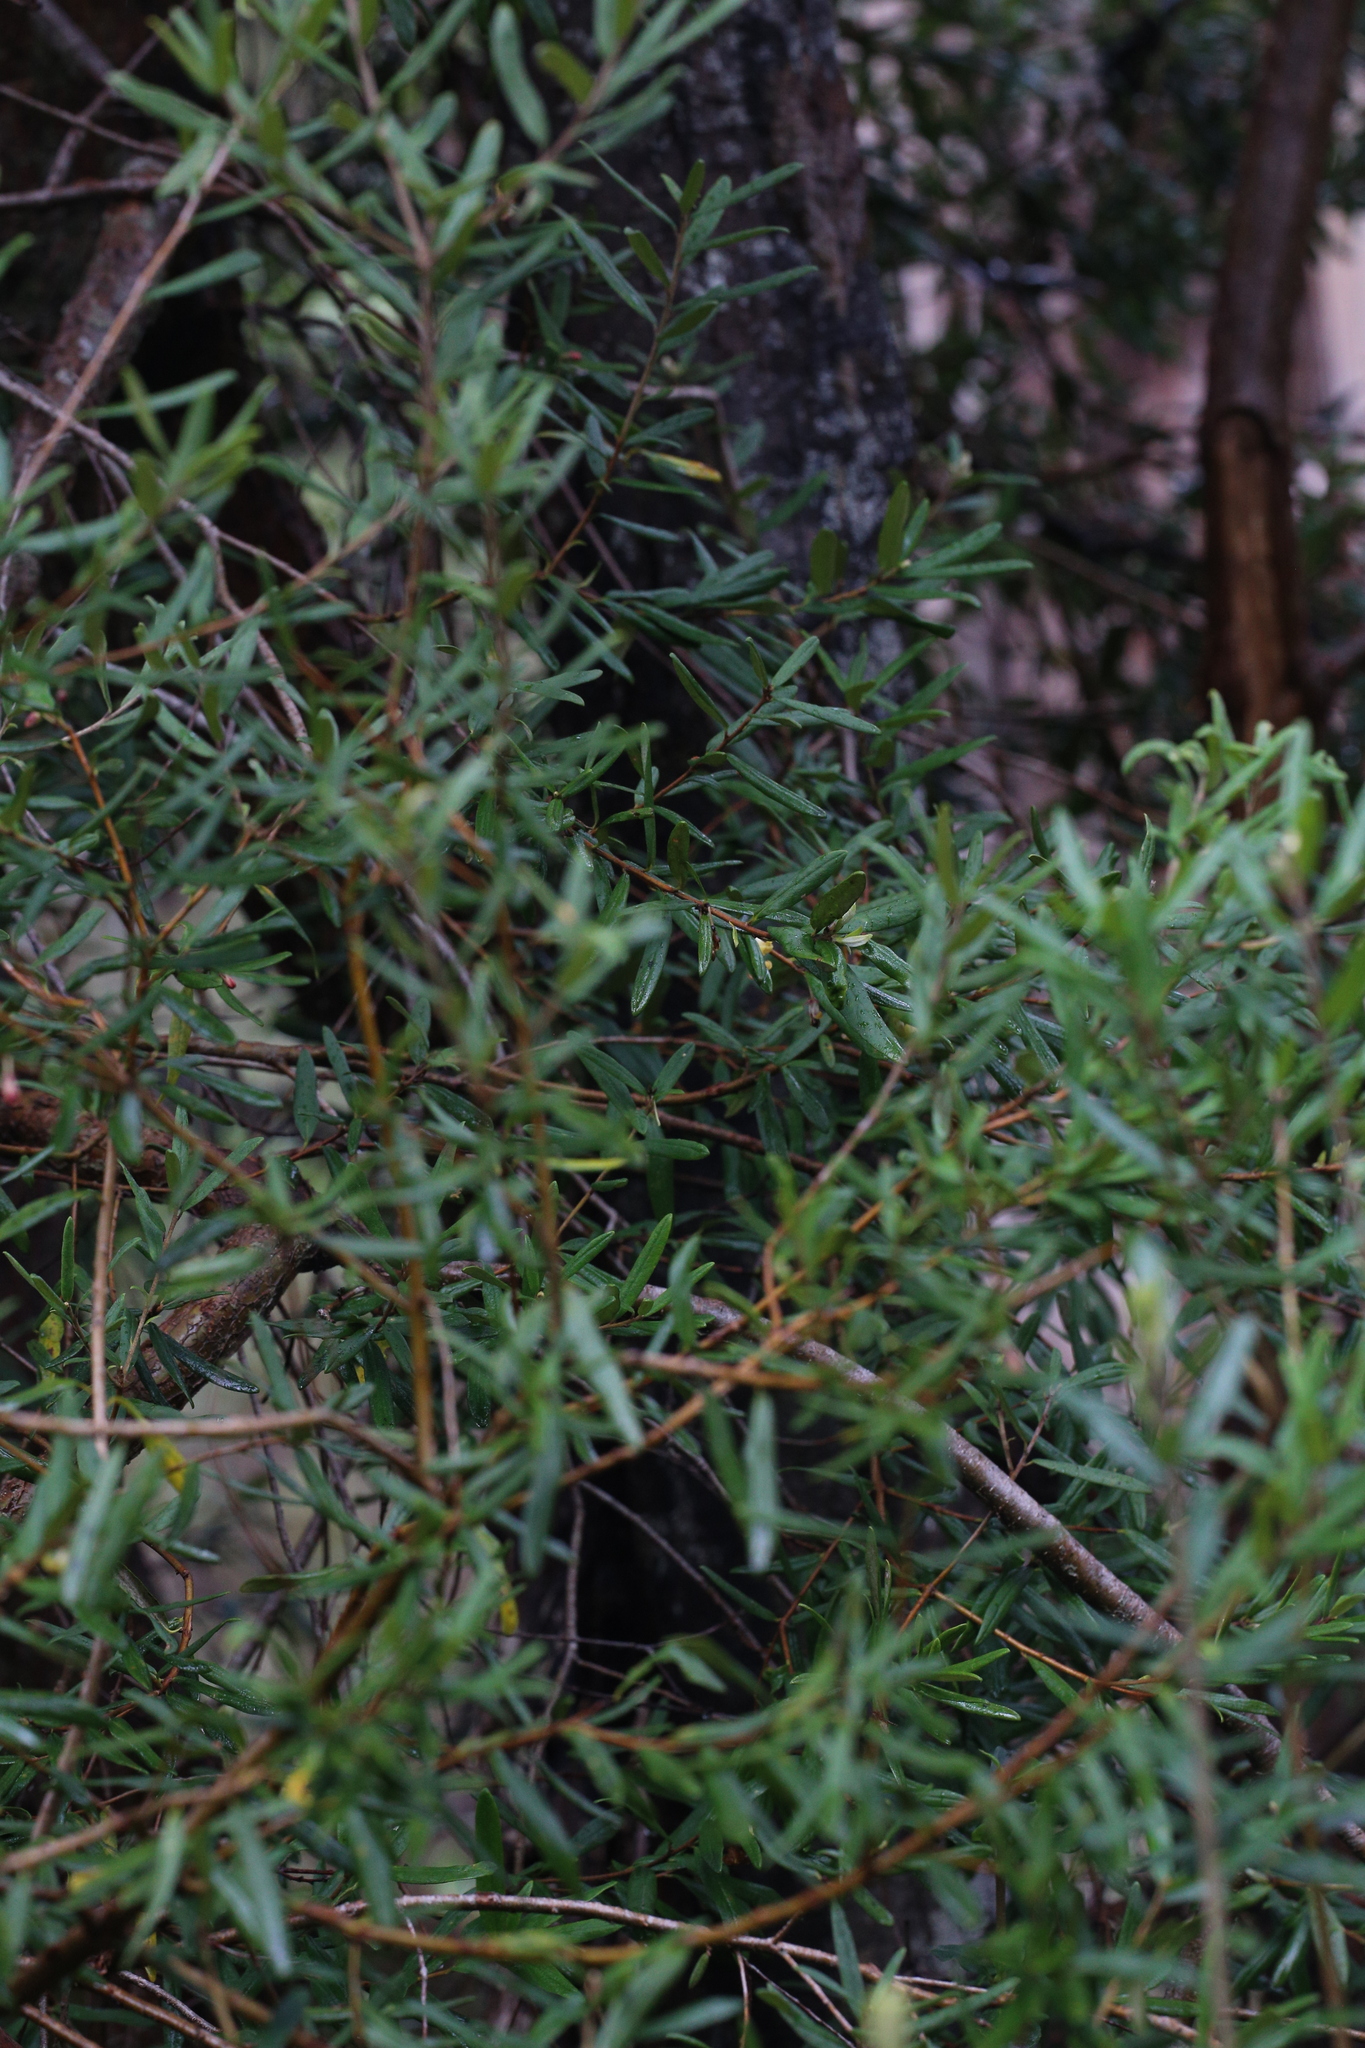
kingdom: Plantae
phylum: Tracheophyta
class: Magnoliopsida
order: Apiales
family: Pittosporaceae
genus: Pittosporum
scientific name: Pittosporum bicolor
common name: Tallowwood
